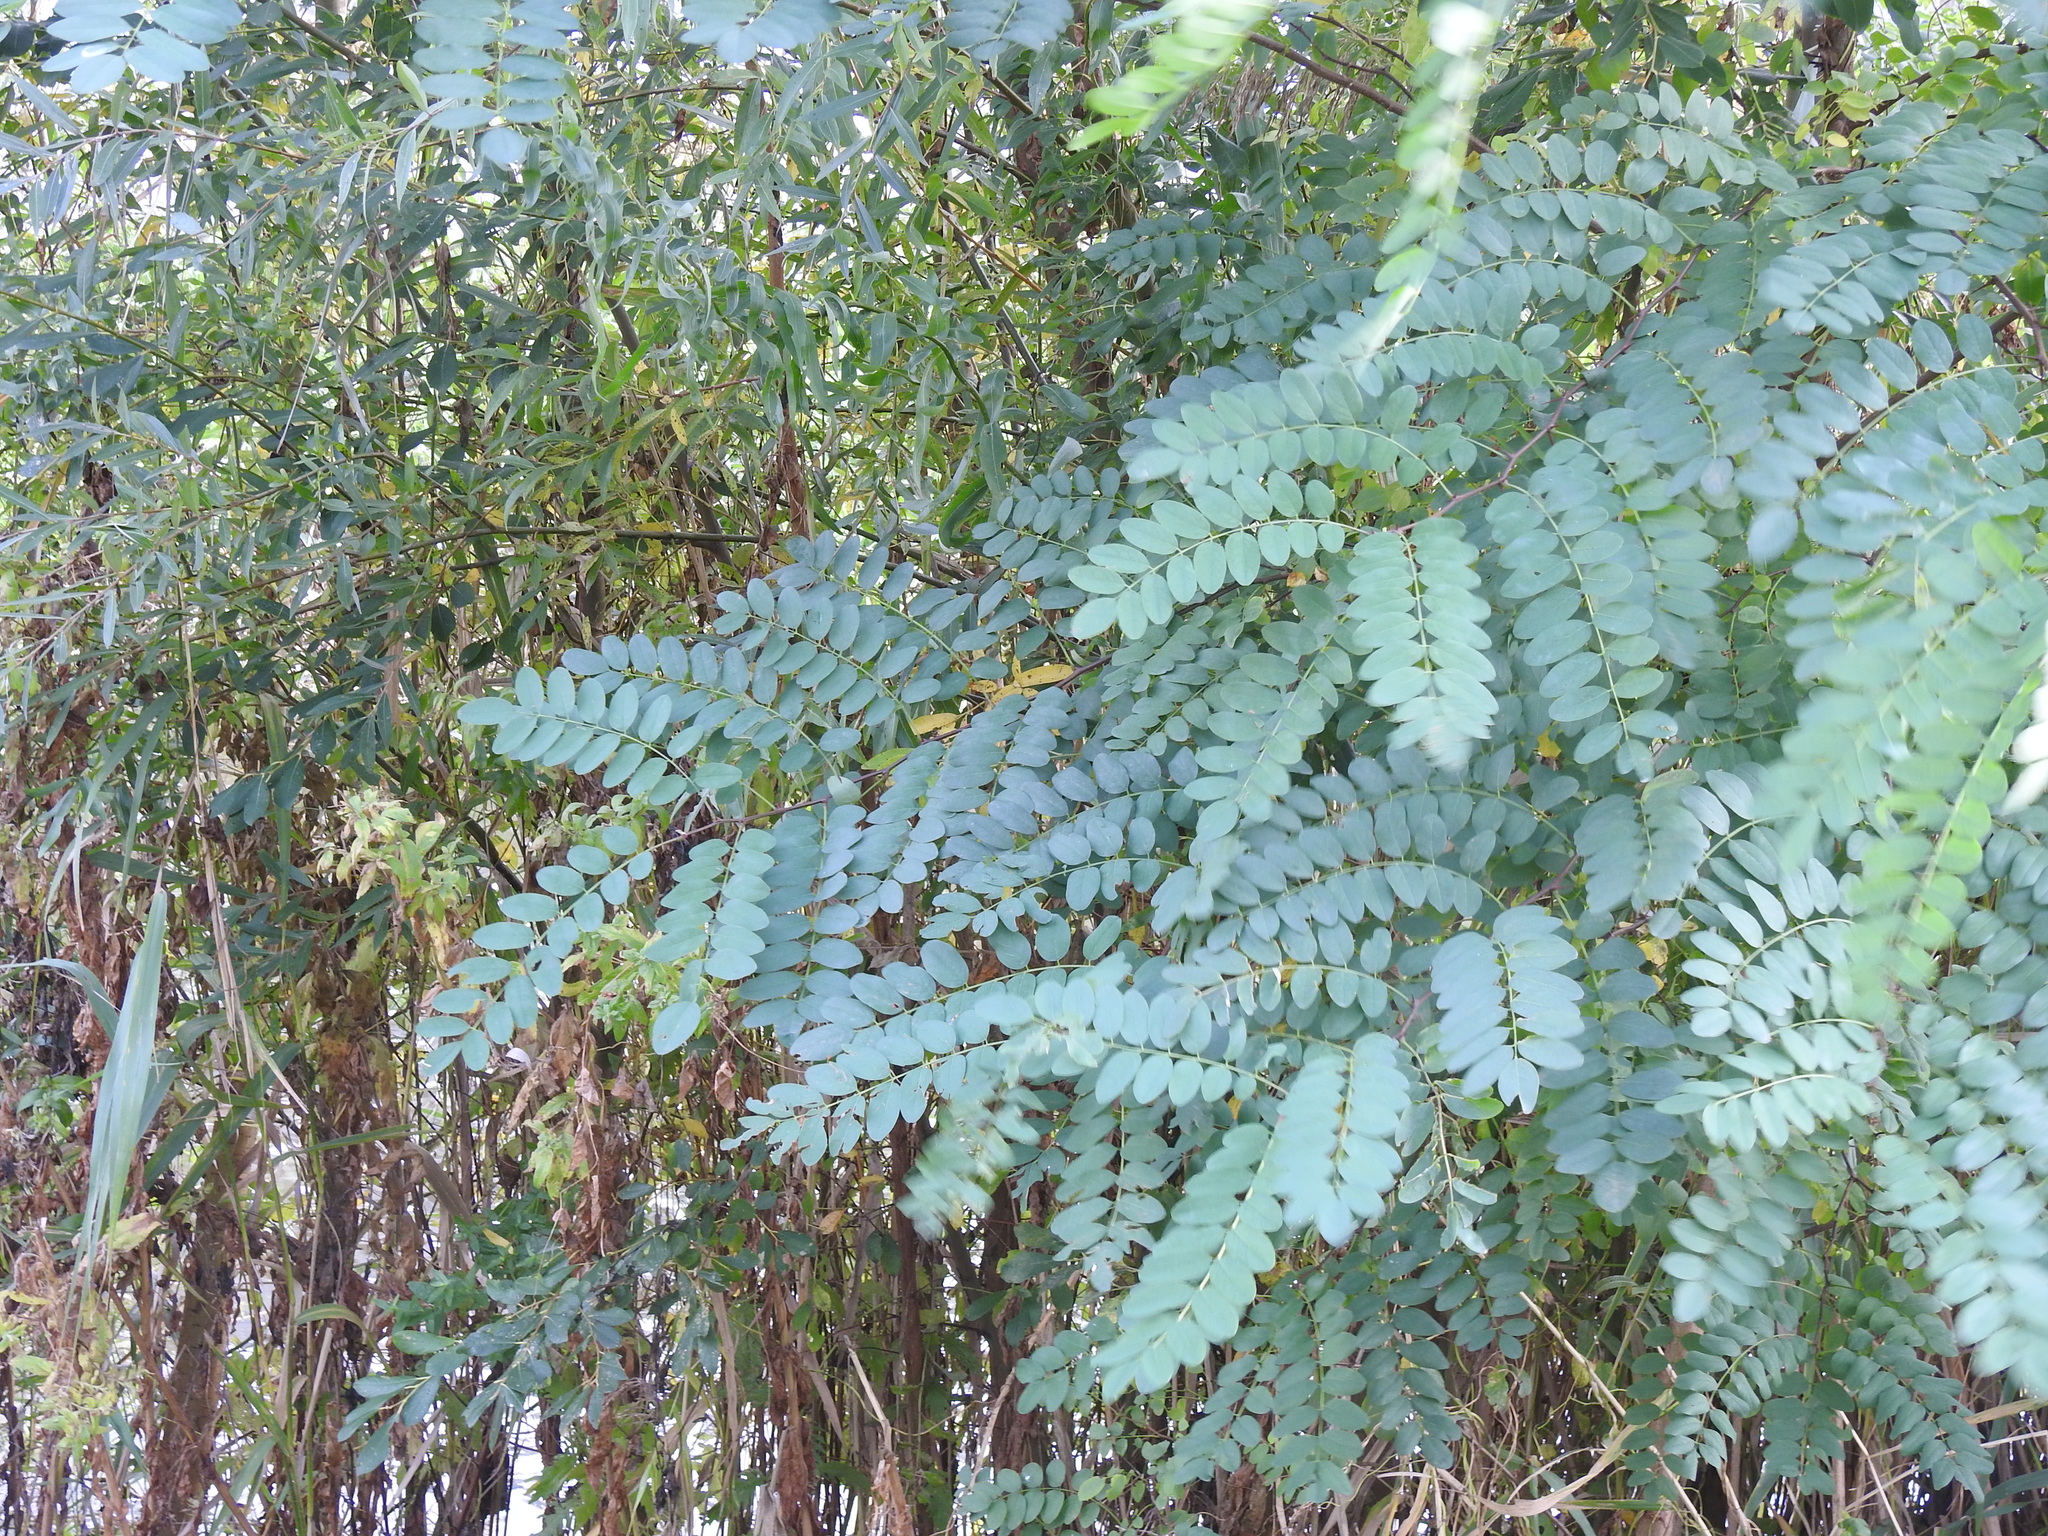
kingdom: Plantae
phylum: Tracheophyta
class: Magnoliopsida
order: Fabales
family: Fabaceae
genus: Robinia
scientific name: Robinia pseudoacacia
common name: Black locust
